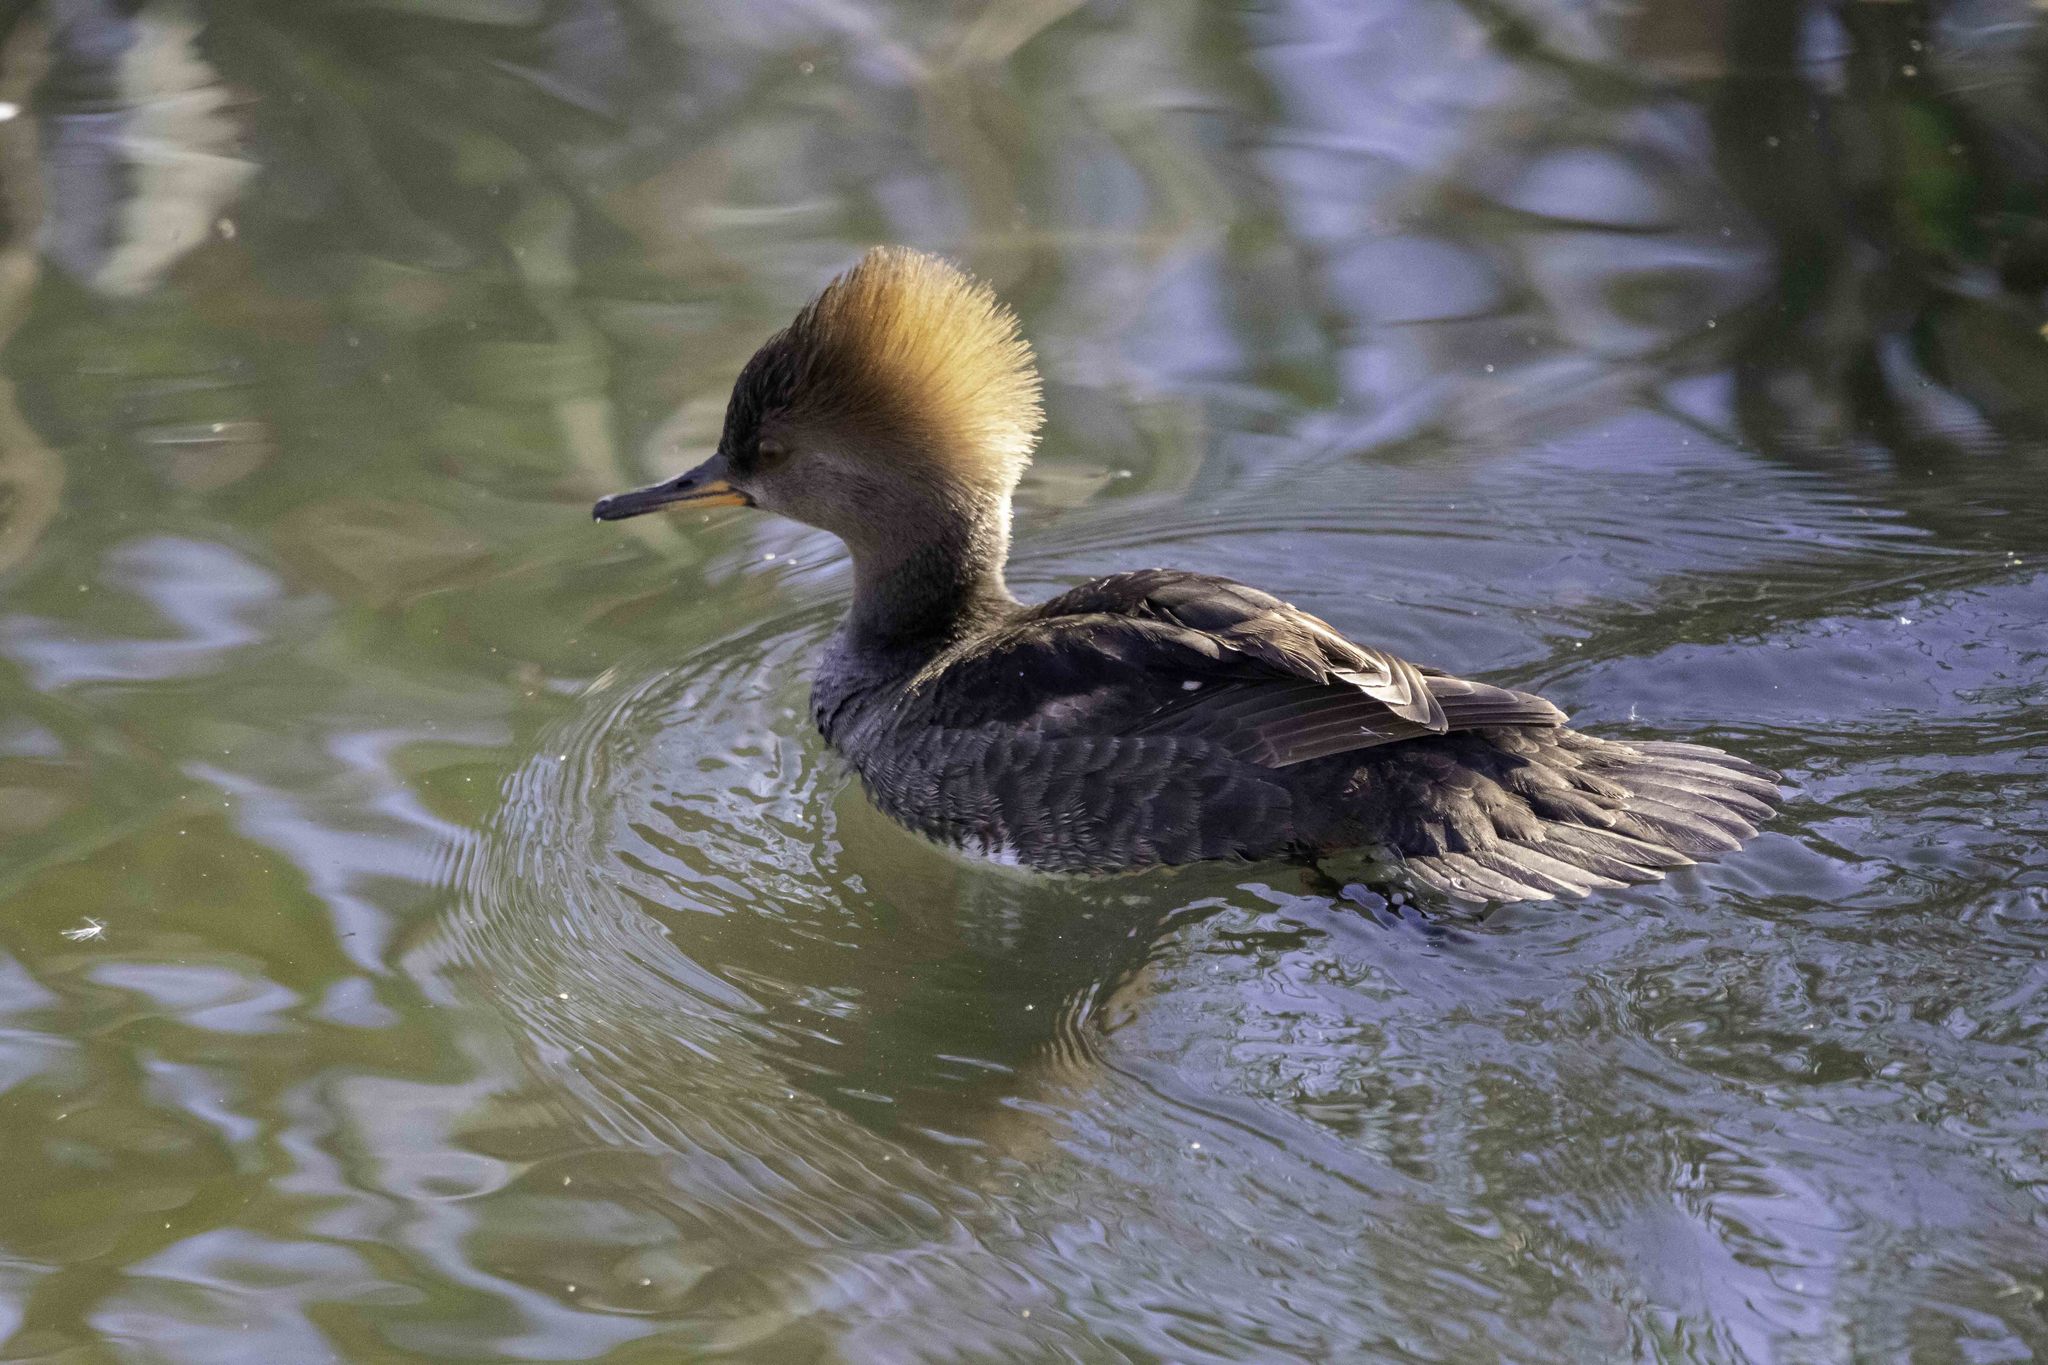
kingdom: Animalia
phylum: Chordata
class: Aves
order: Anseriformes
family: Anatidae
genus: Lophodytes
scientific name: Lophodytes cucullatus
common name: Hooded merganser
